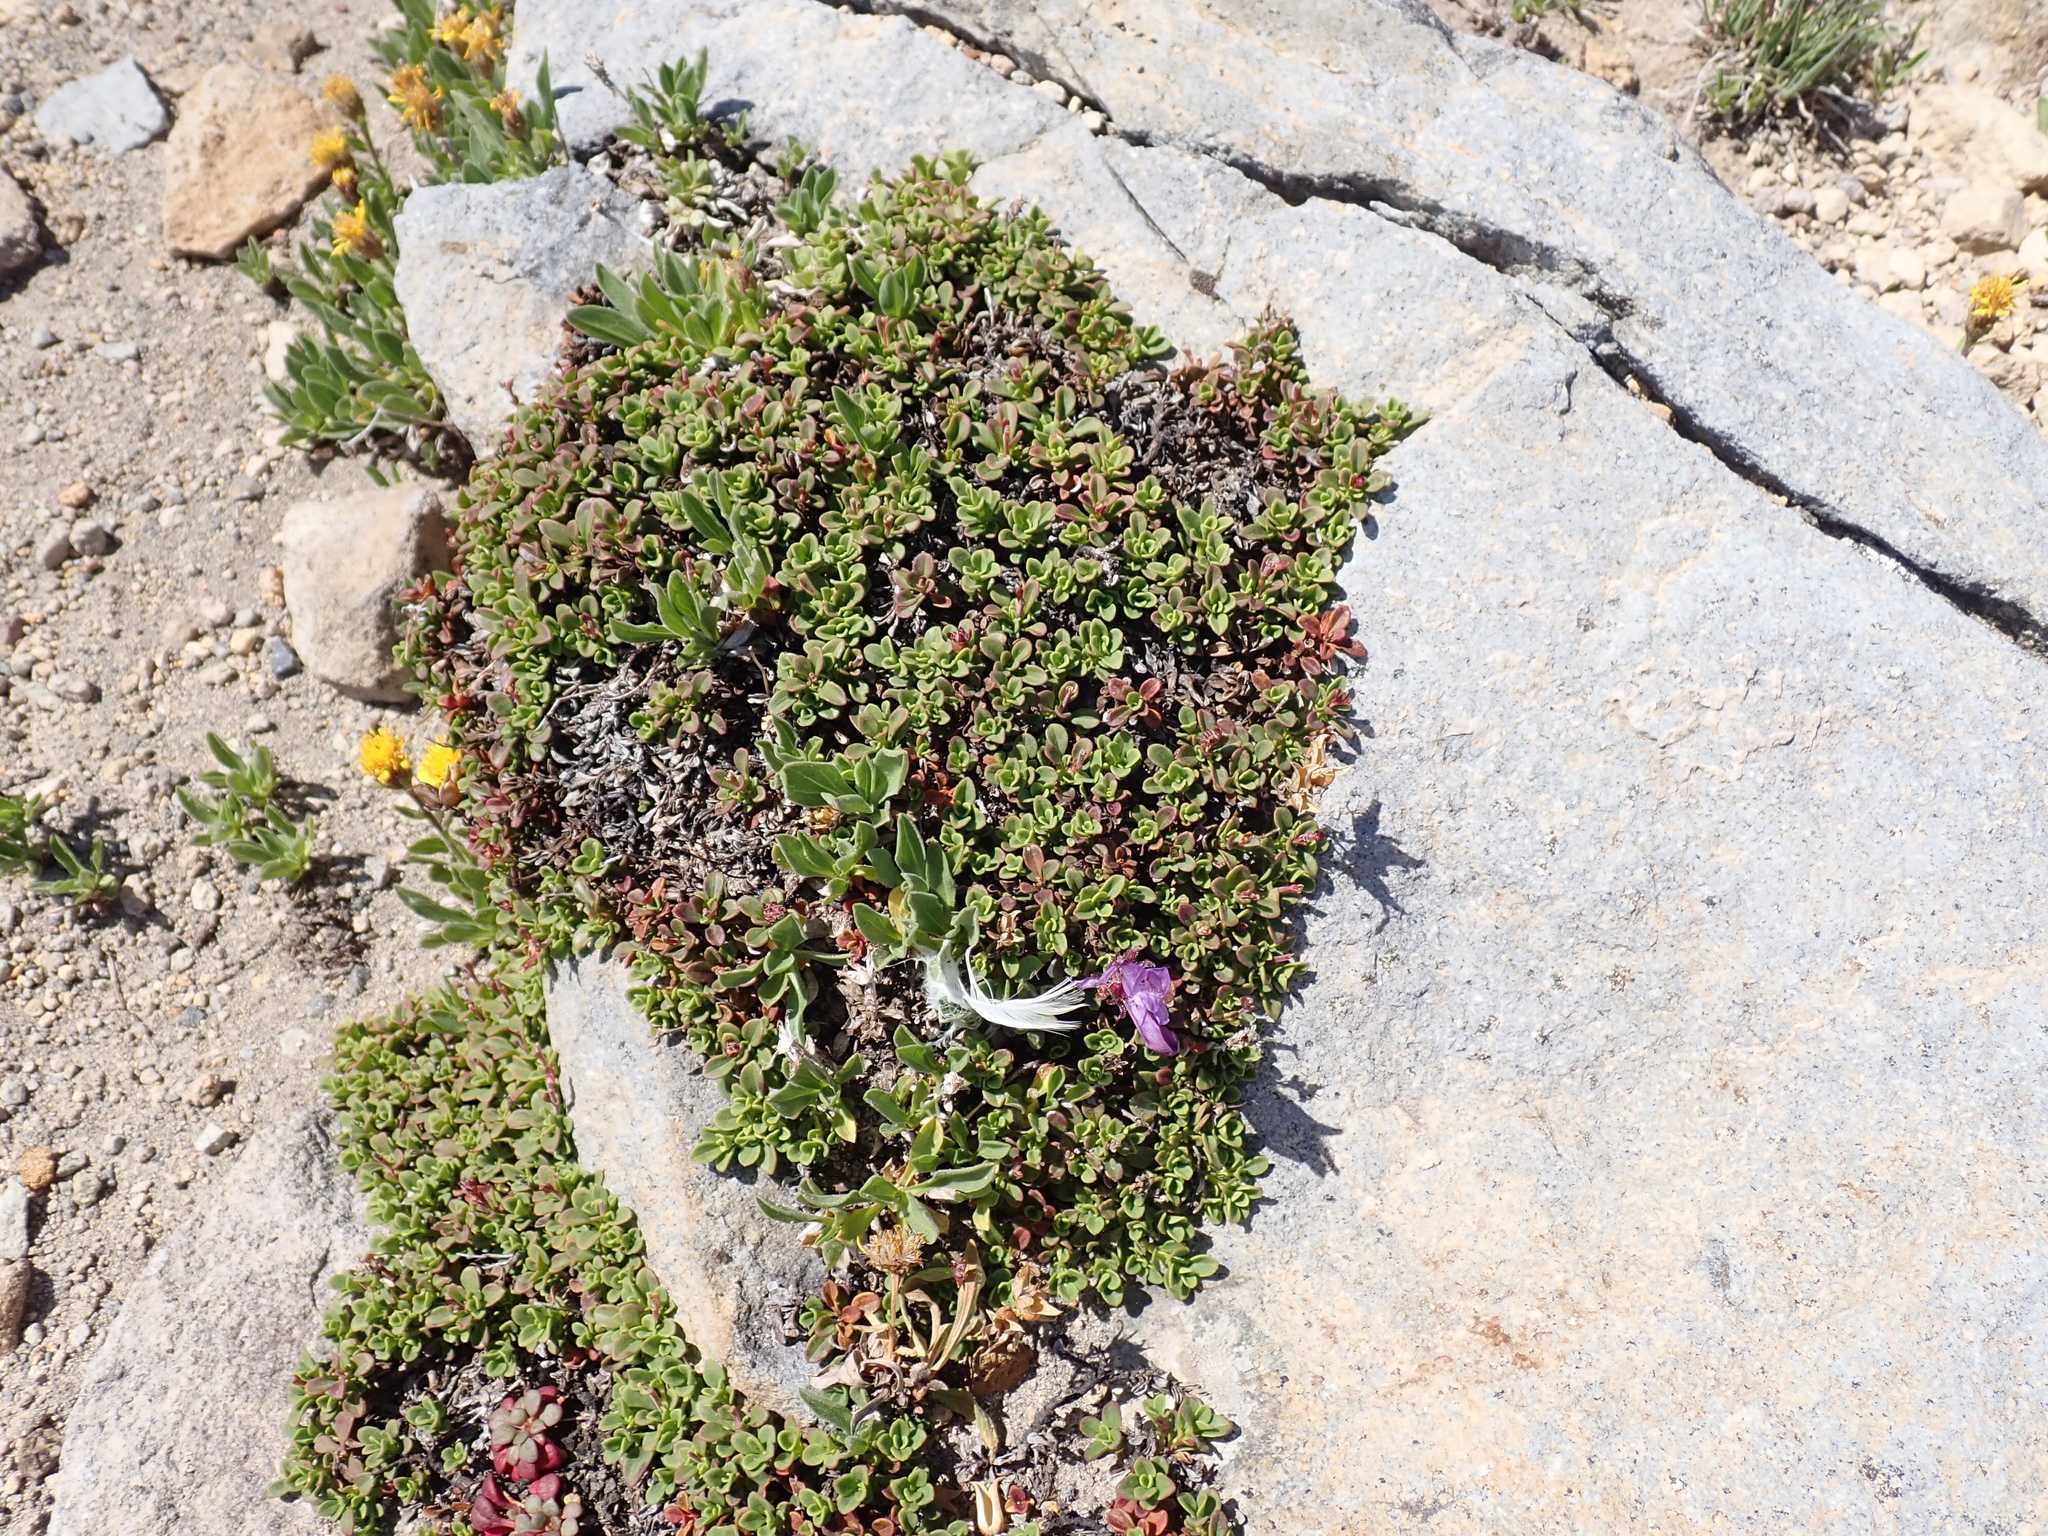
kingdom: Plantae
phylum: Tracheophyta
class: Magnoliopsida
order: Lamiales
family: Plantaginaceae
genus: Penstemon
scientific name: Penstemon davidsonii
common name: Davidson's penstemon
